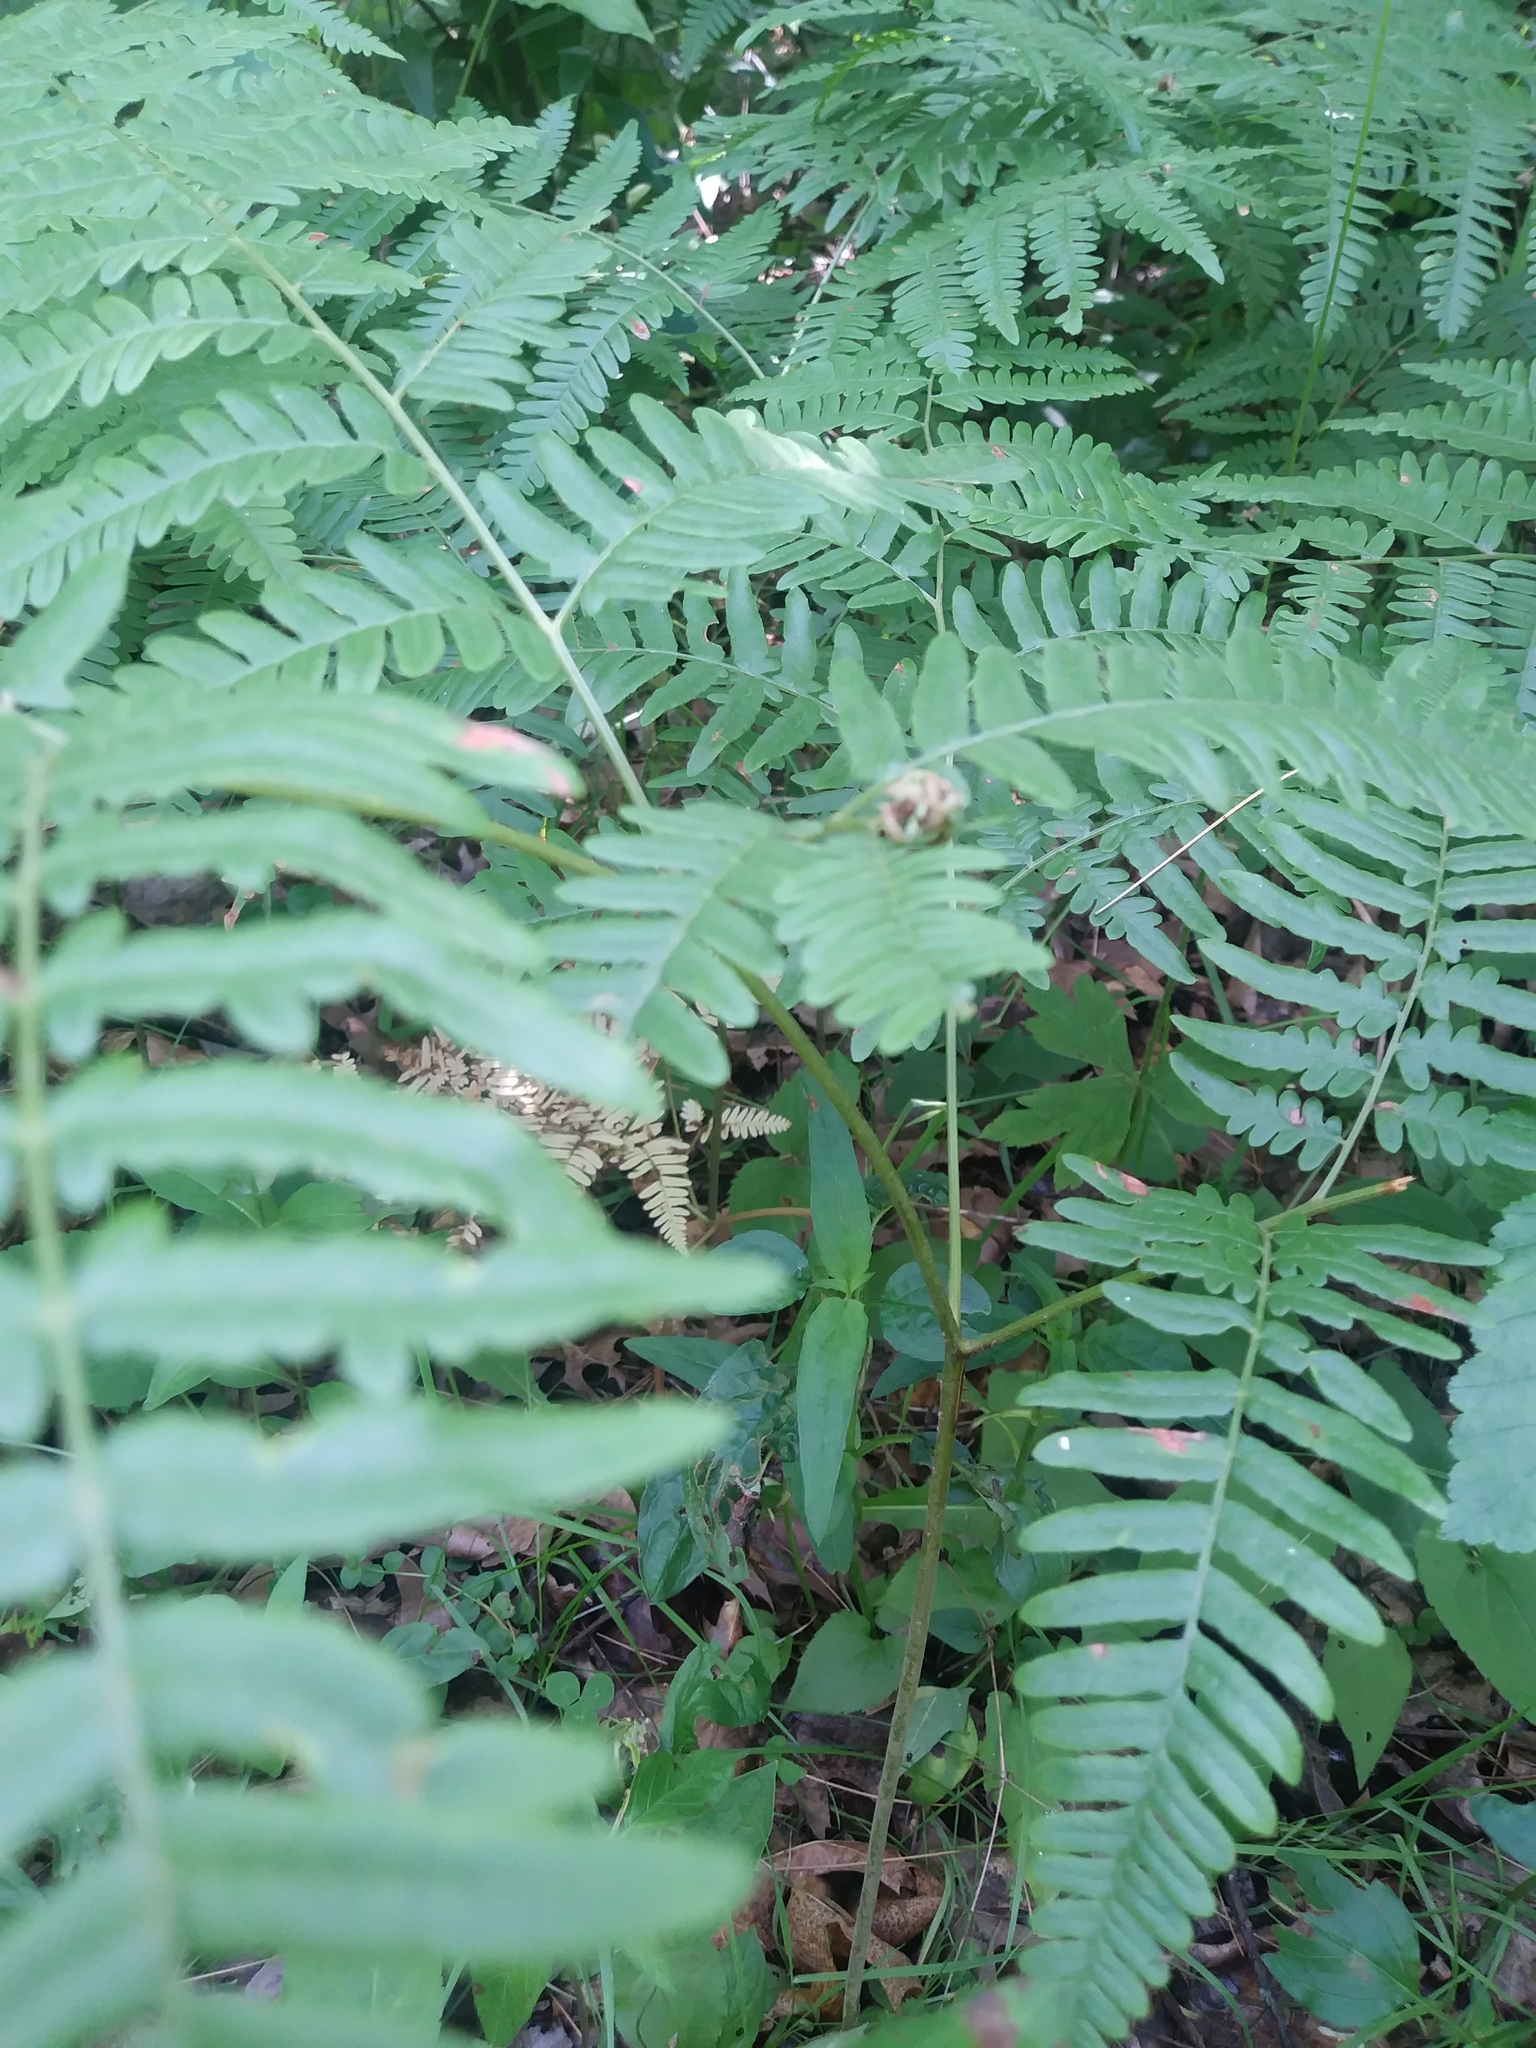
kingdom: Plantae
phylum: Tracheophyta
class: Polypodiopsida
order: Polypodiales
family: Dennstaedtiaceae
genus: Pteridium
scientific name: Pteridium aquilinum
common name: Bracken
